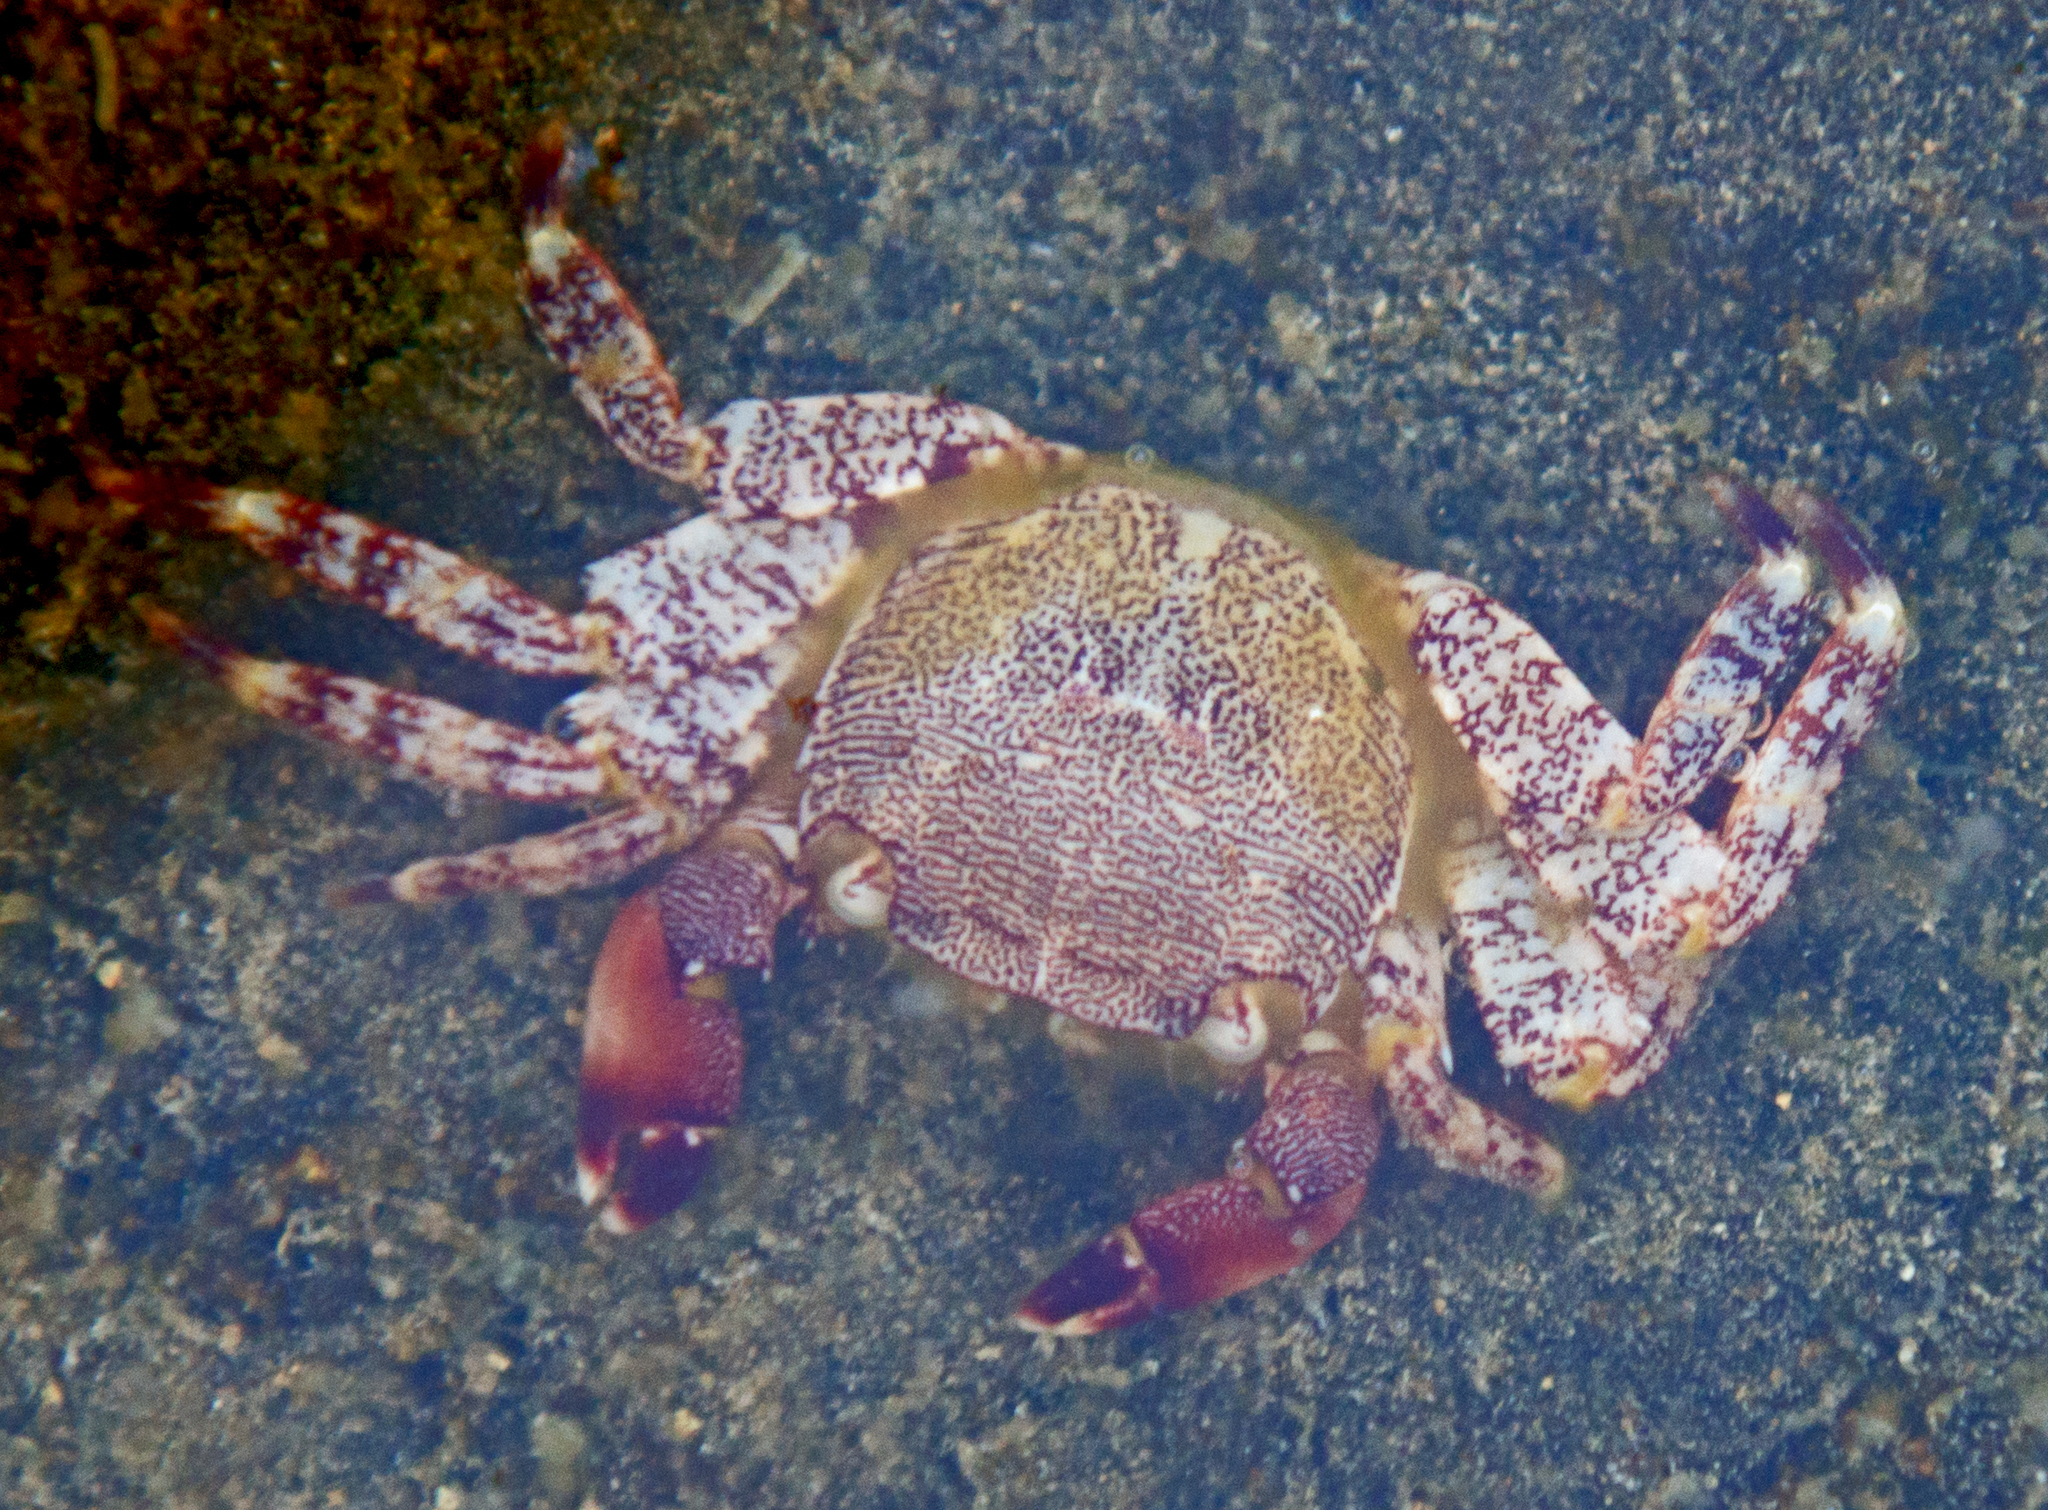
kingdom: Animalia
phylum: Arthropoda
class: Malacostraca
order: Decapoda
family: Grapsidae
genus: Pachygrapsus
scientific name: Pachygrapsus marmoratus
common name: Marbled rock crab
